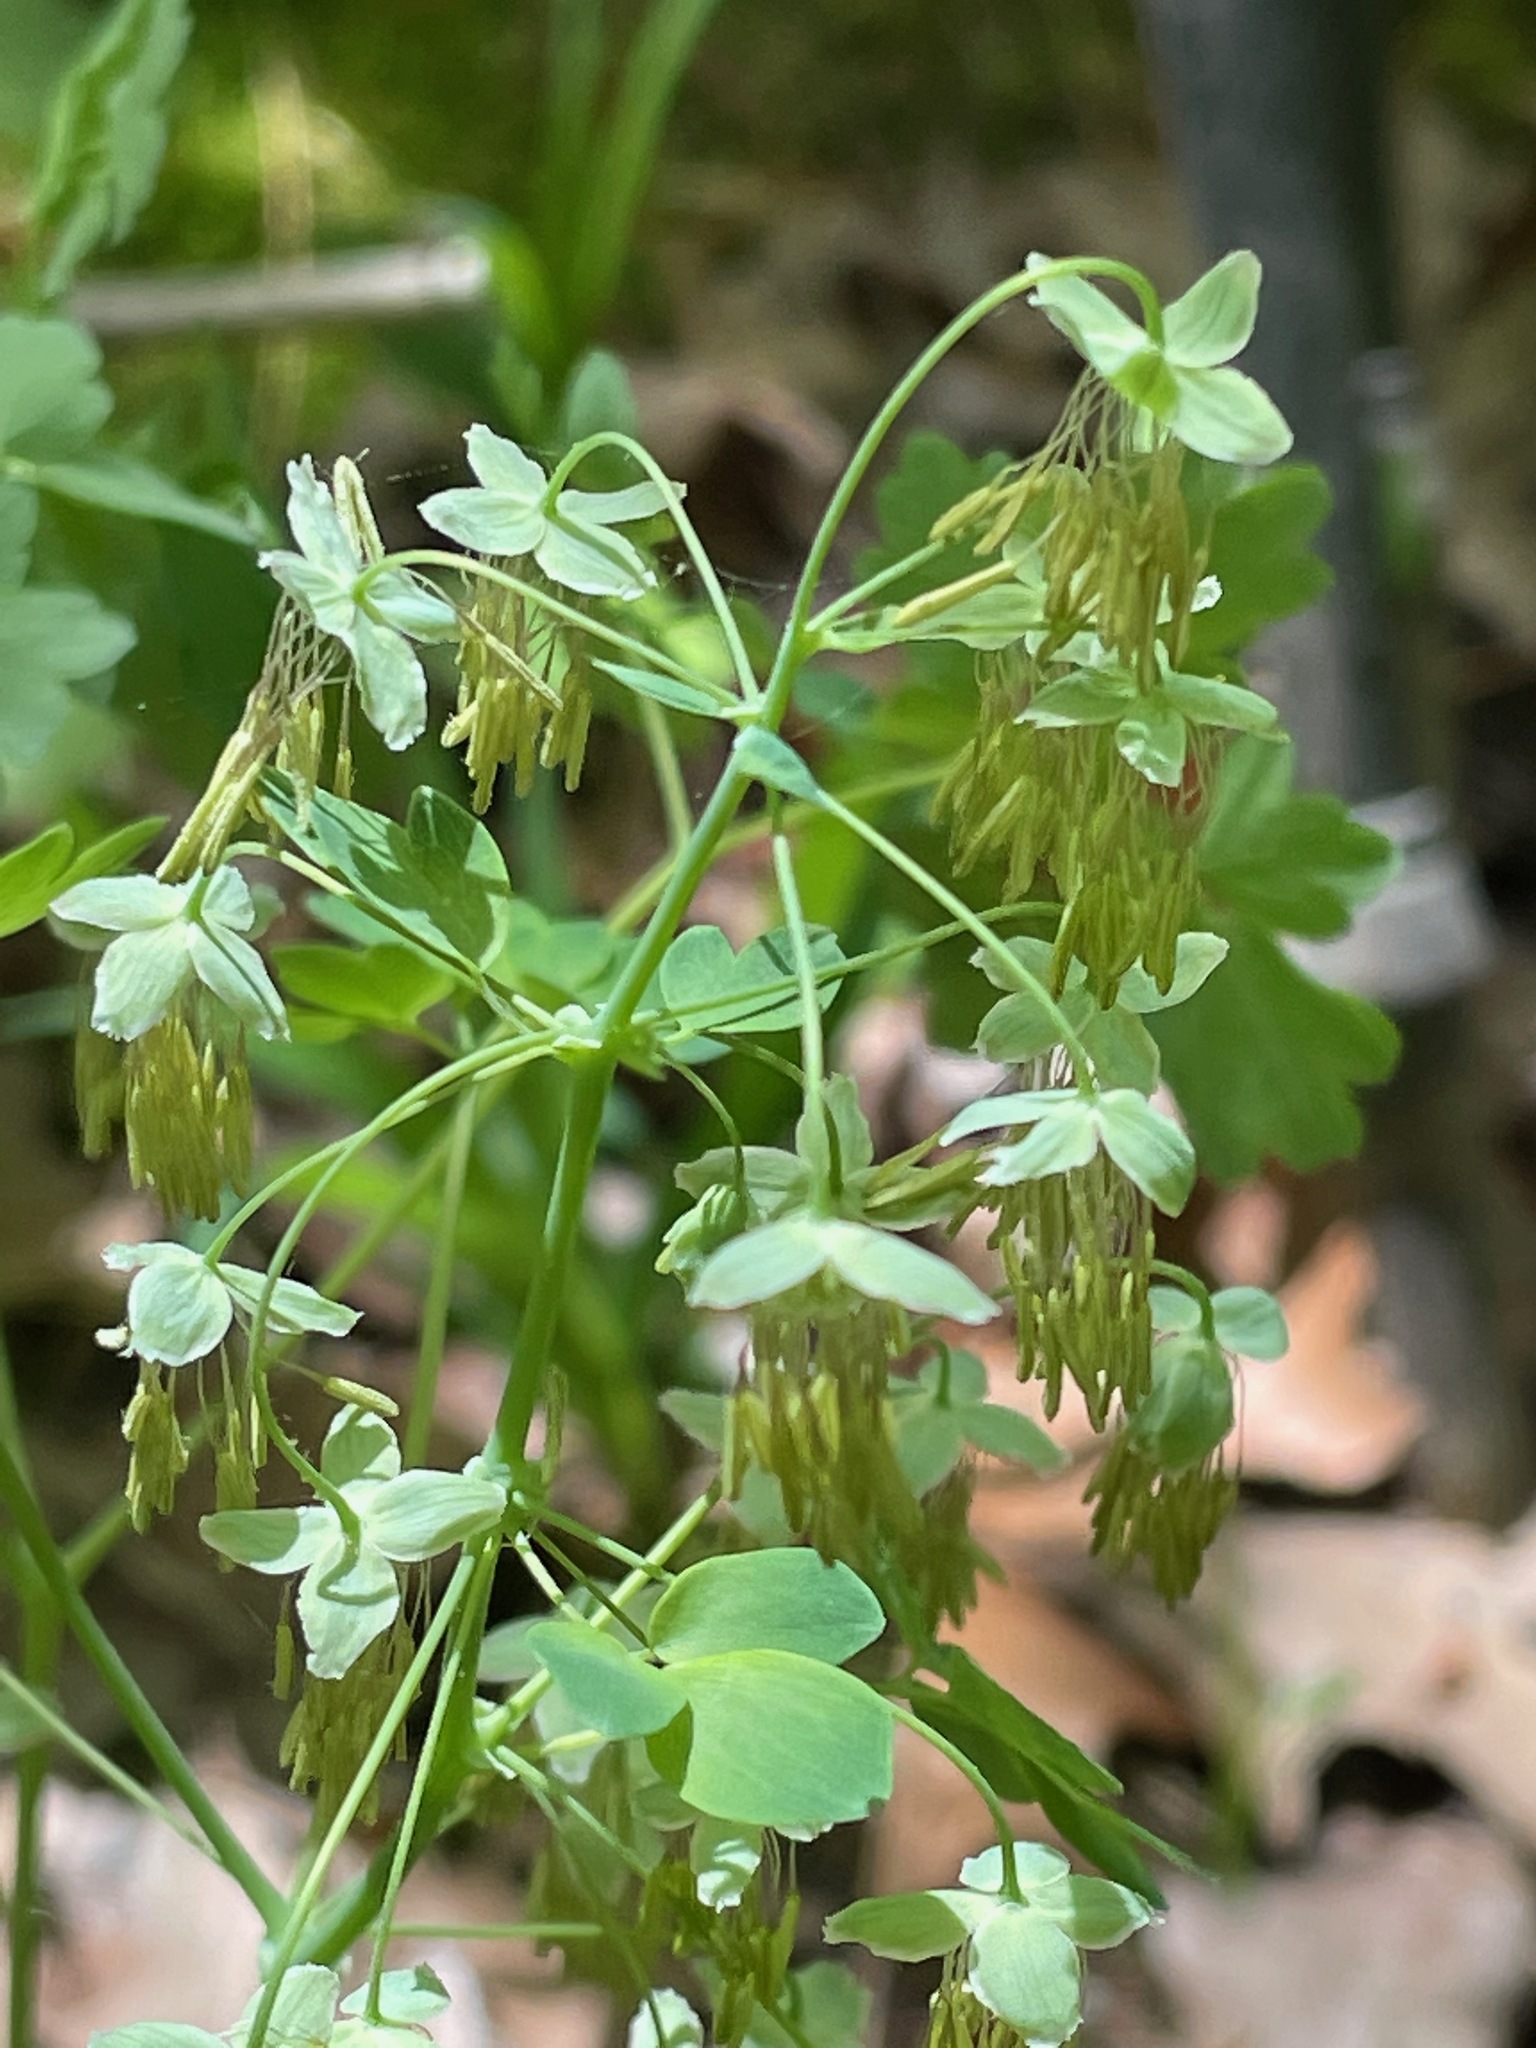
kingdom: Plantae
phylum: Tracheophyta
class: Magnoliopsida
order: Ranunculales
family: Ranunculaceae
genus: Thalictrum
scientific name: Thalictrum dioicum
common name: Early meadow-rue
